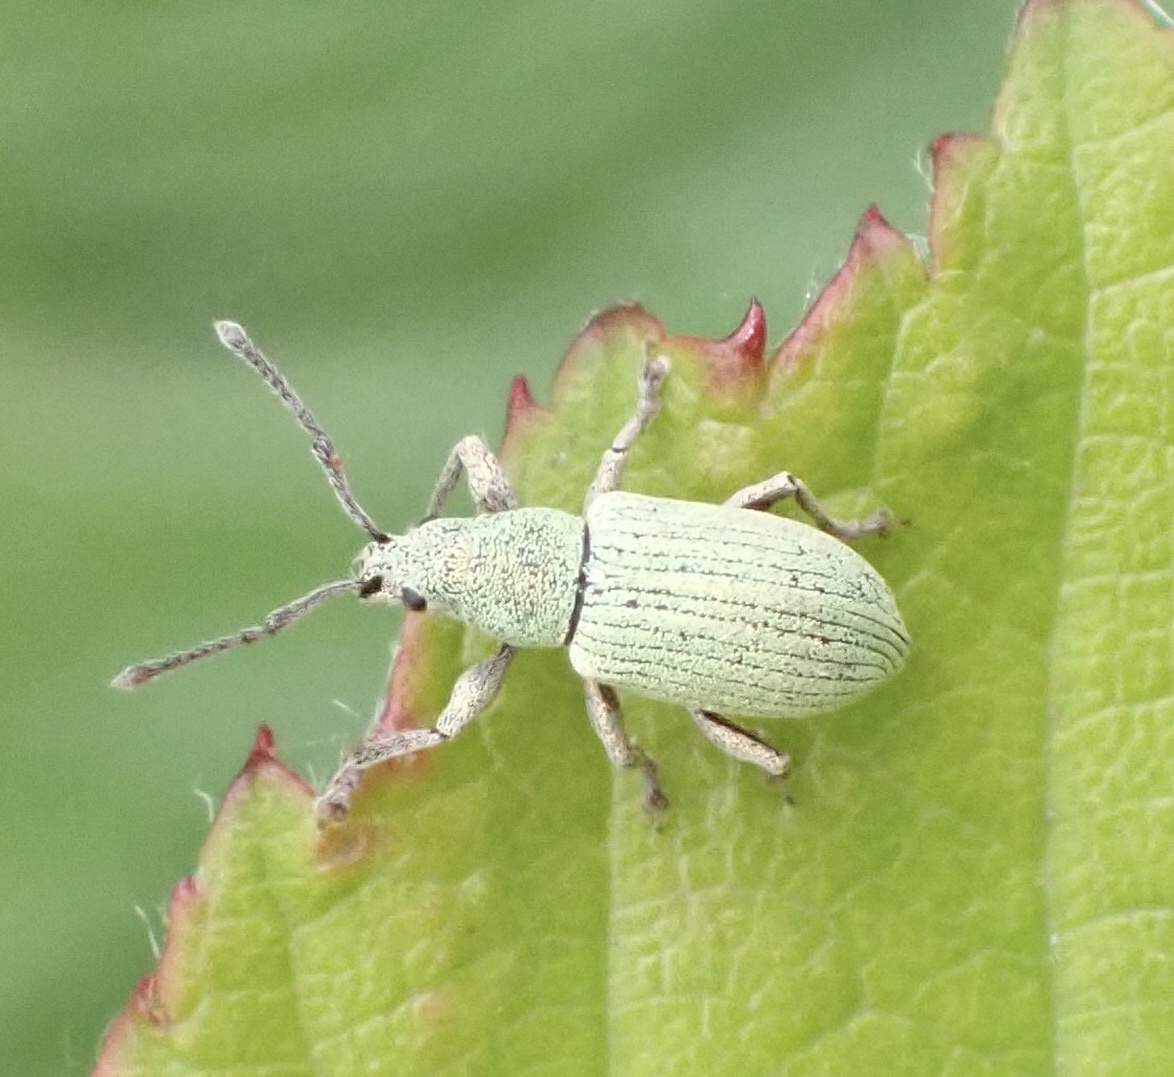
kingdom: Animalia
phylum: Arthropoda
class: Insecta
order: Coleoptera
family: Curculionidae
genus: Phyllobius
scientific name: Phyllobius virideaeris
